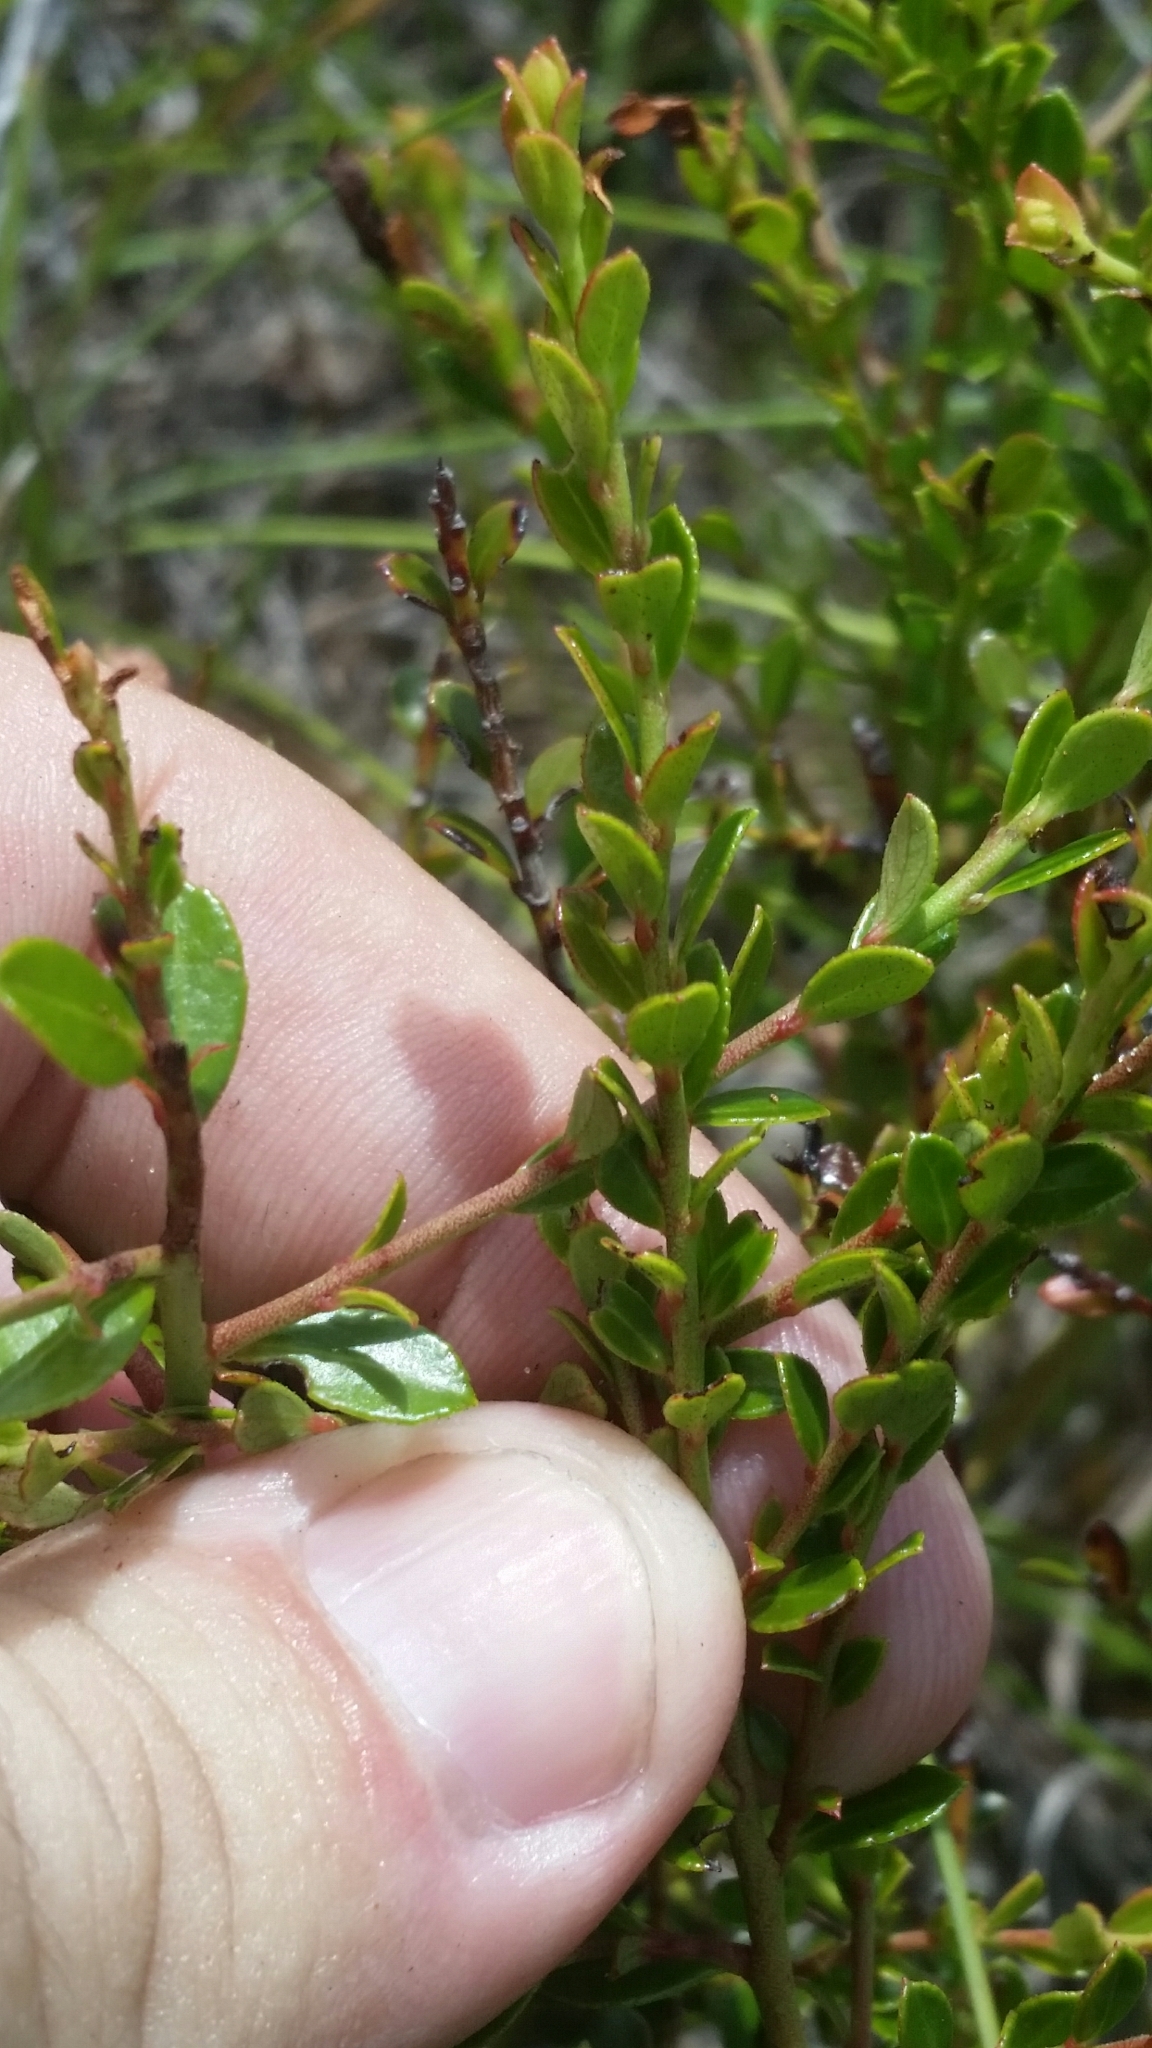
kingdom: Plantae
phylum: Tracheophyta
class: Magnoliopsida
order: Ericales
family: Ericaceae
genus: Vaccinium
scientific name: Vaccinium myrsinites
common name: Evergreen blueberry
